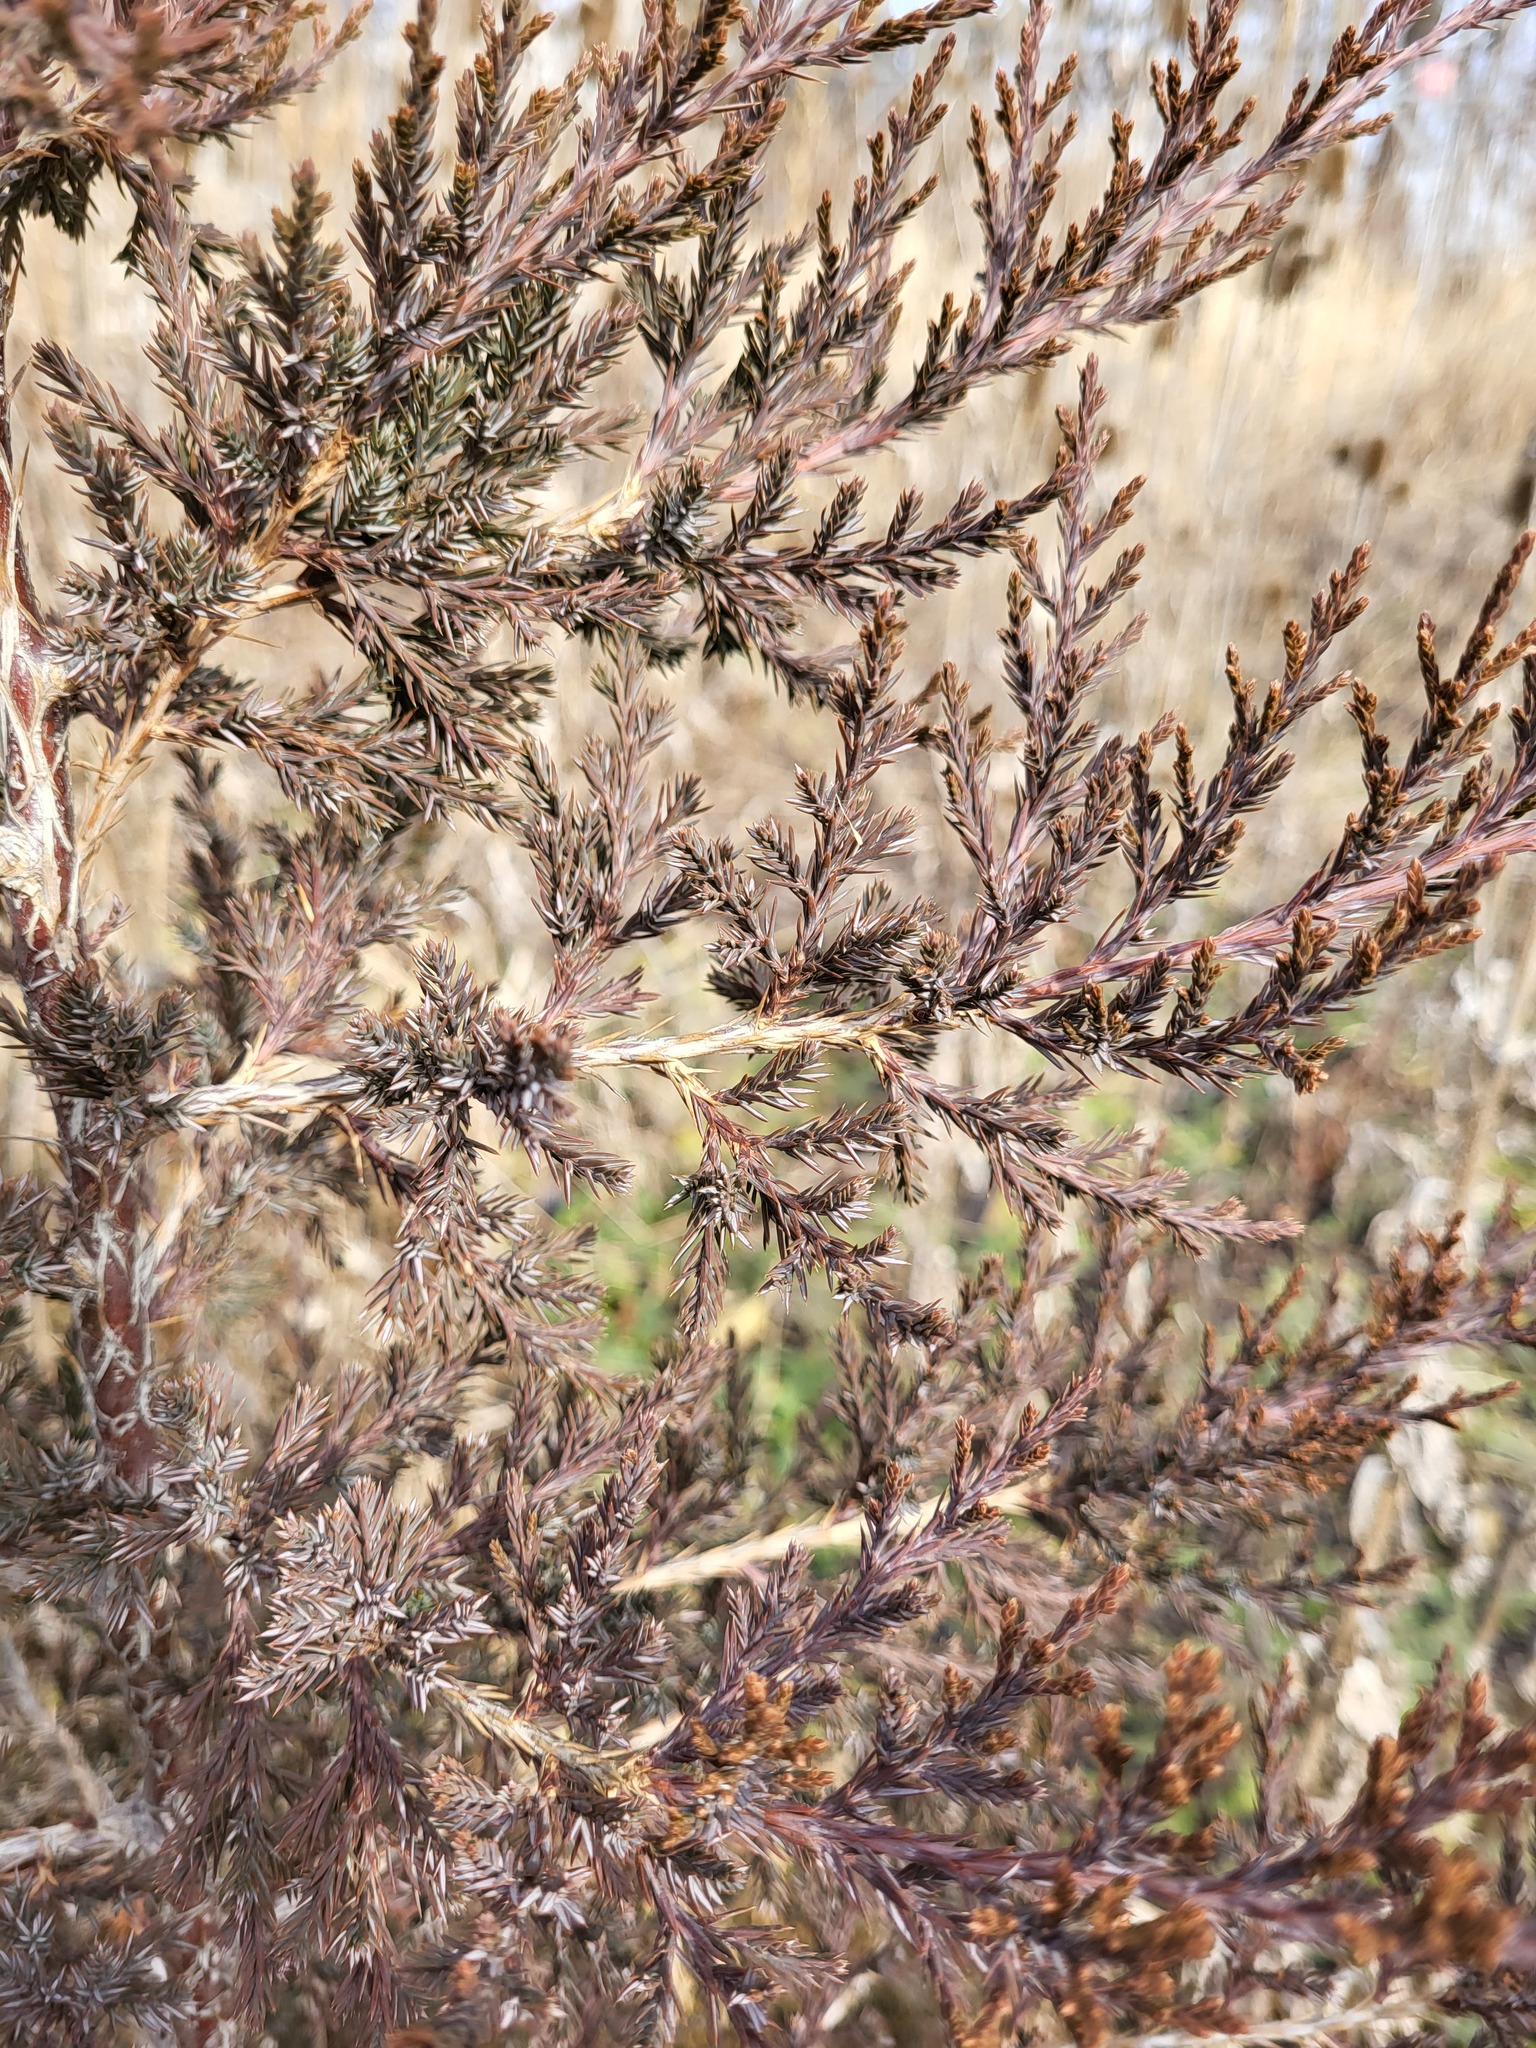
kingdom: Plantae
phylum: Tracheophyta
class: Pinopsida
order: Pinales
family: Cupressaceae
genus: Juniperus
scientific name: Juniperus virginiana
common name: Red juniper
